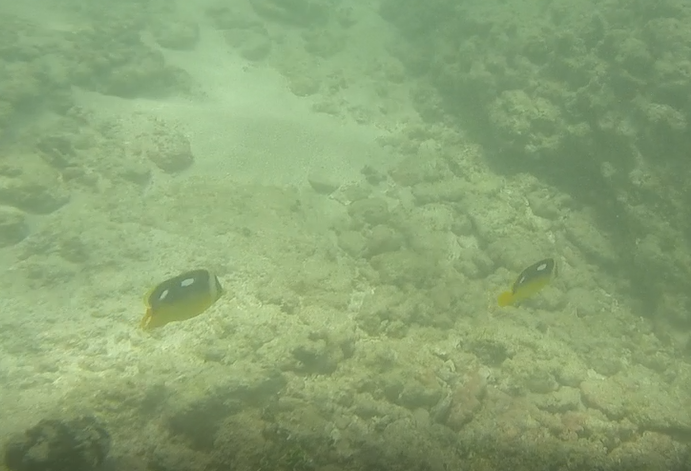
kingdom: Animalia
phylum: Chordata
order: Perciformes
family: Chaetodontidae
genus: Chaetodon
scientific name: Chaetodon quadrimaculatus
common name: Fourspot butterflyfish
